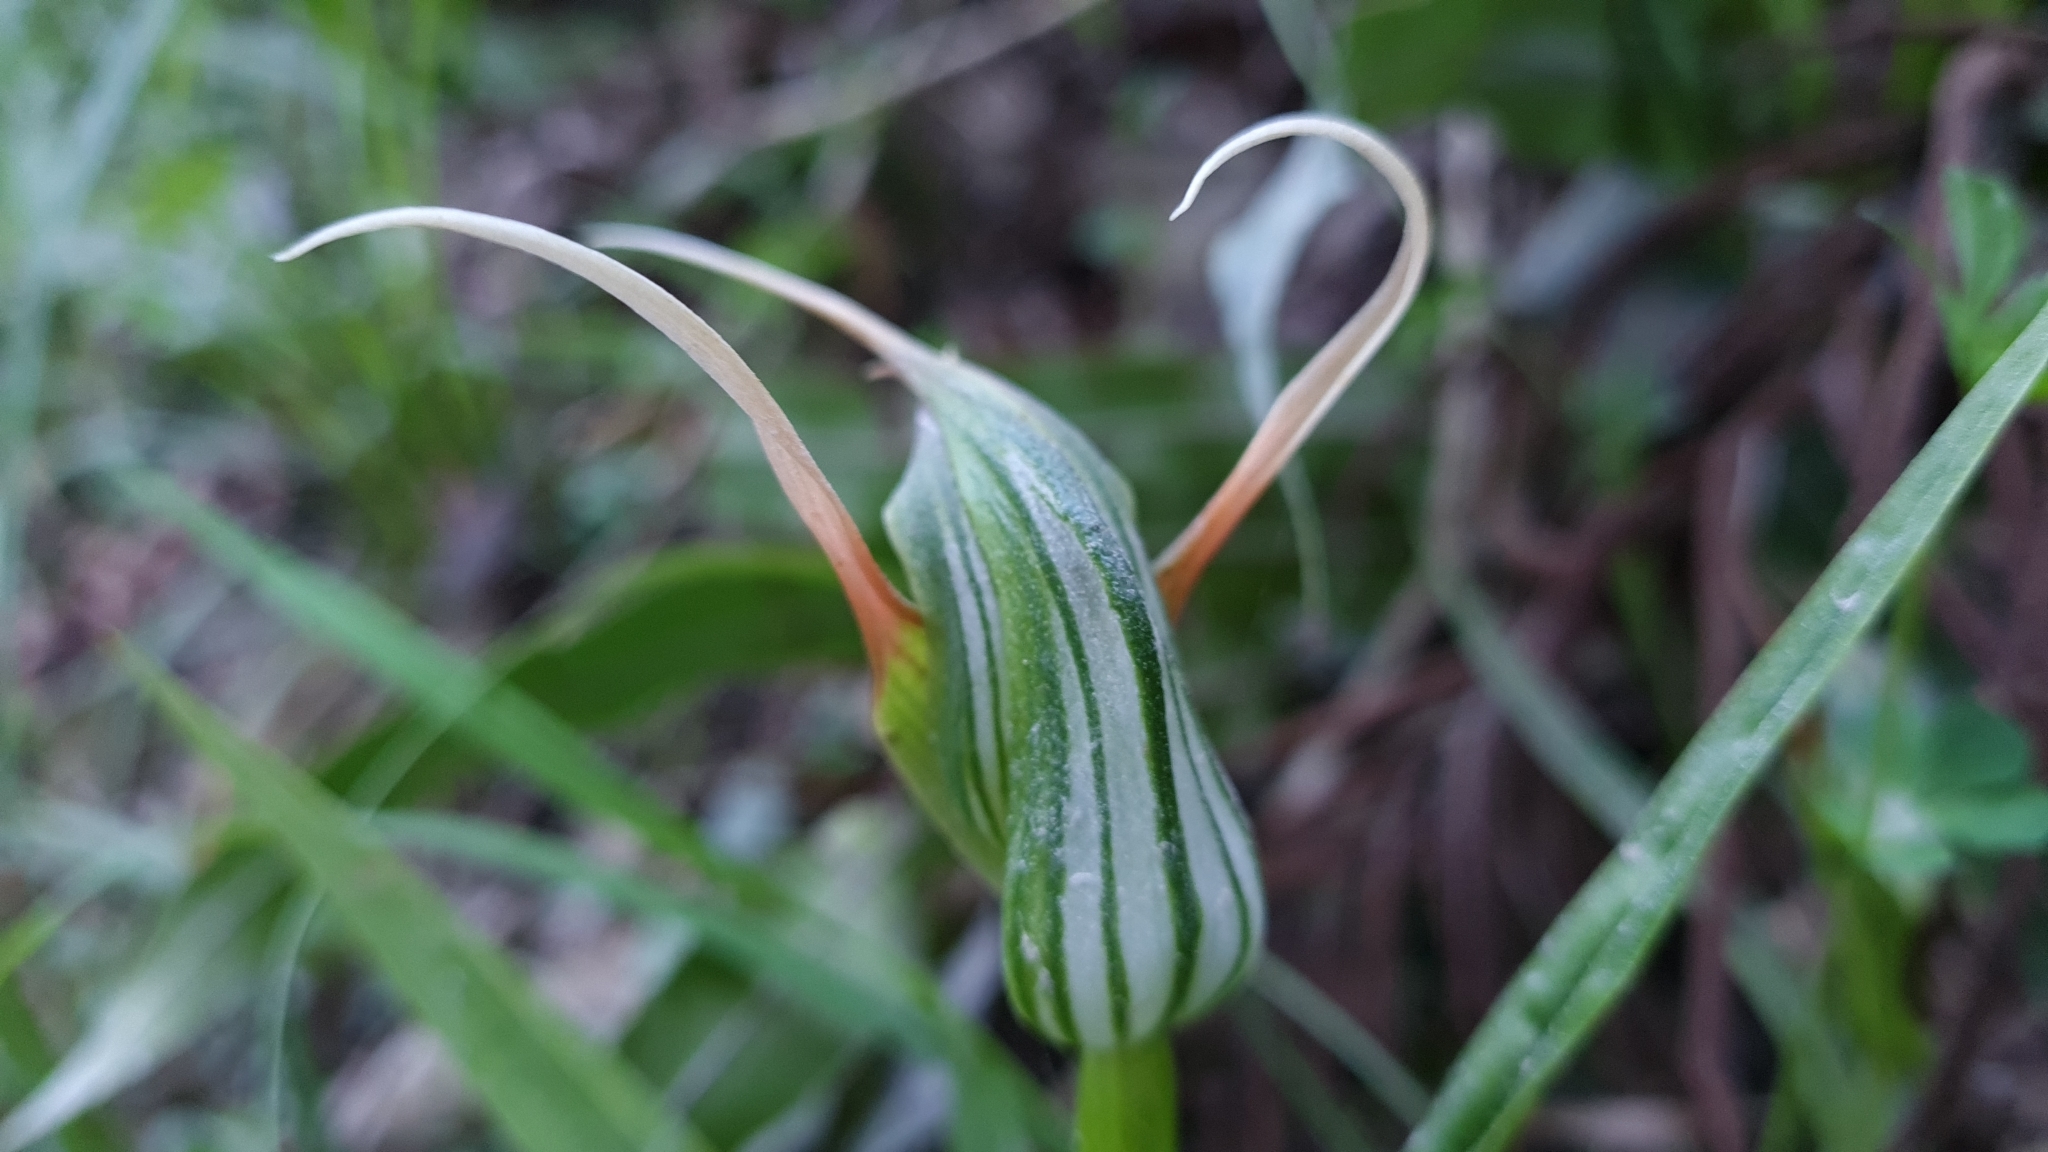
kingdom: Plantae
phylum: Tracheophyta
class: Liliopsida
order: Asparagales
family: Orchidaceae
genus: Pterostylis
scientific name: Pterostylis banksii
